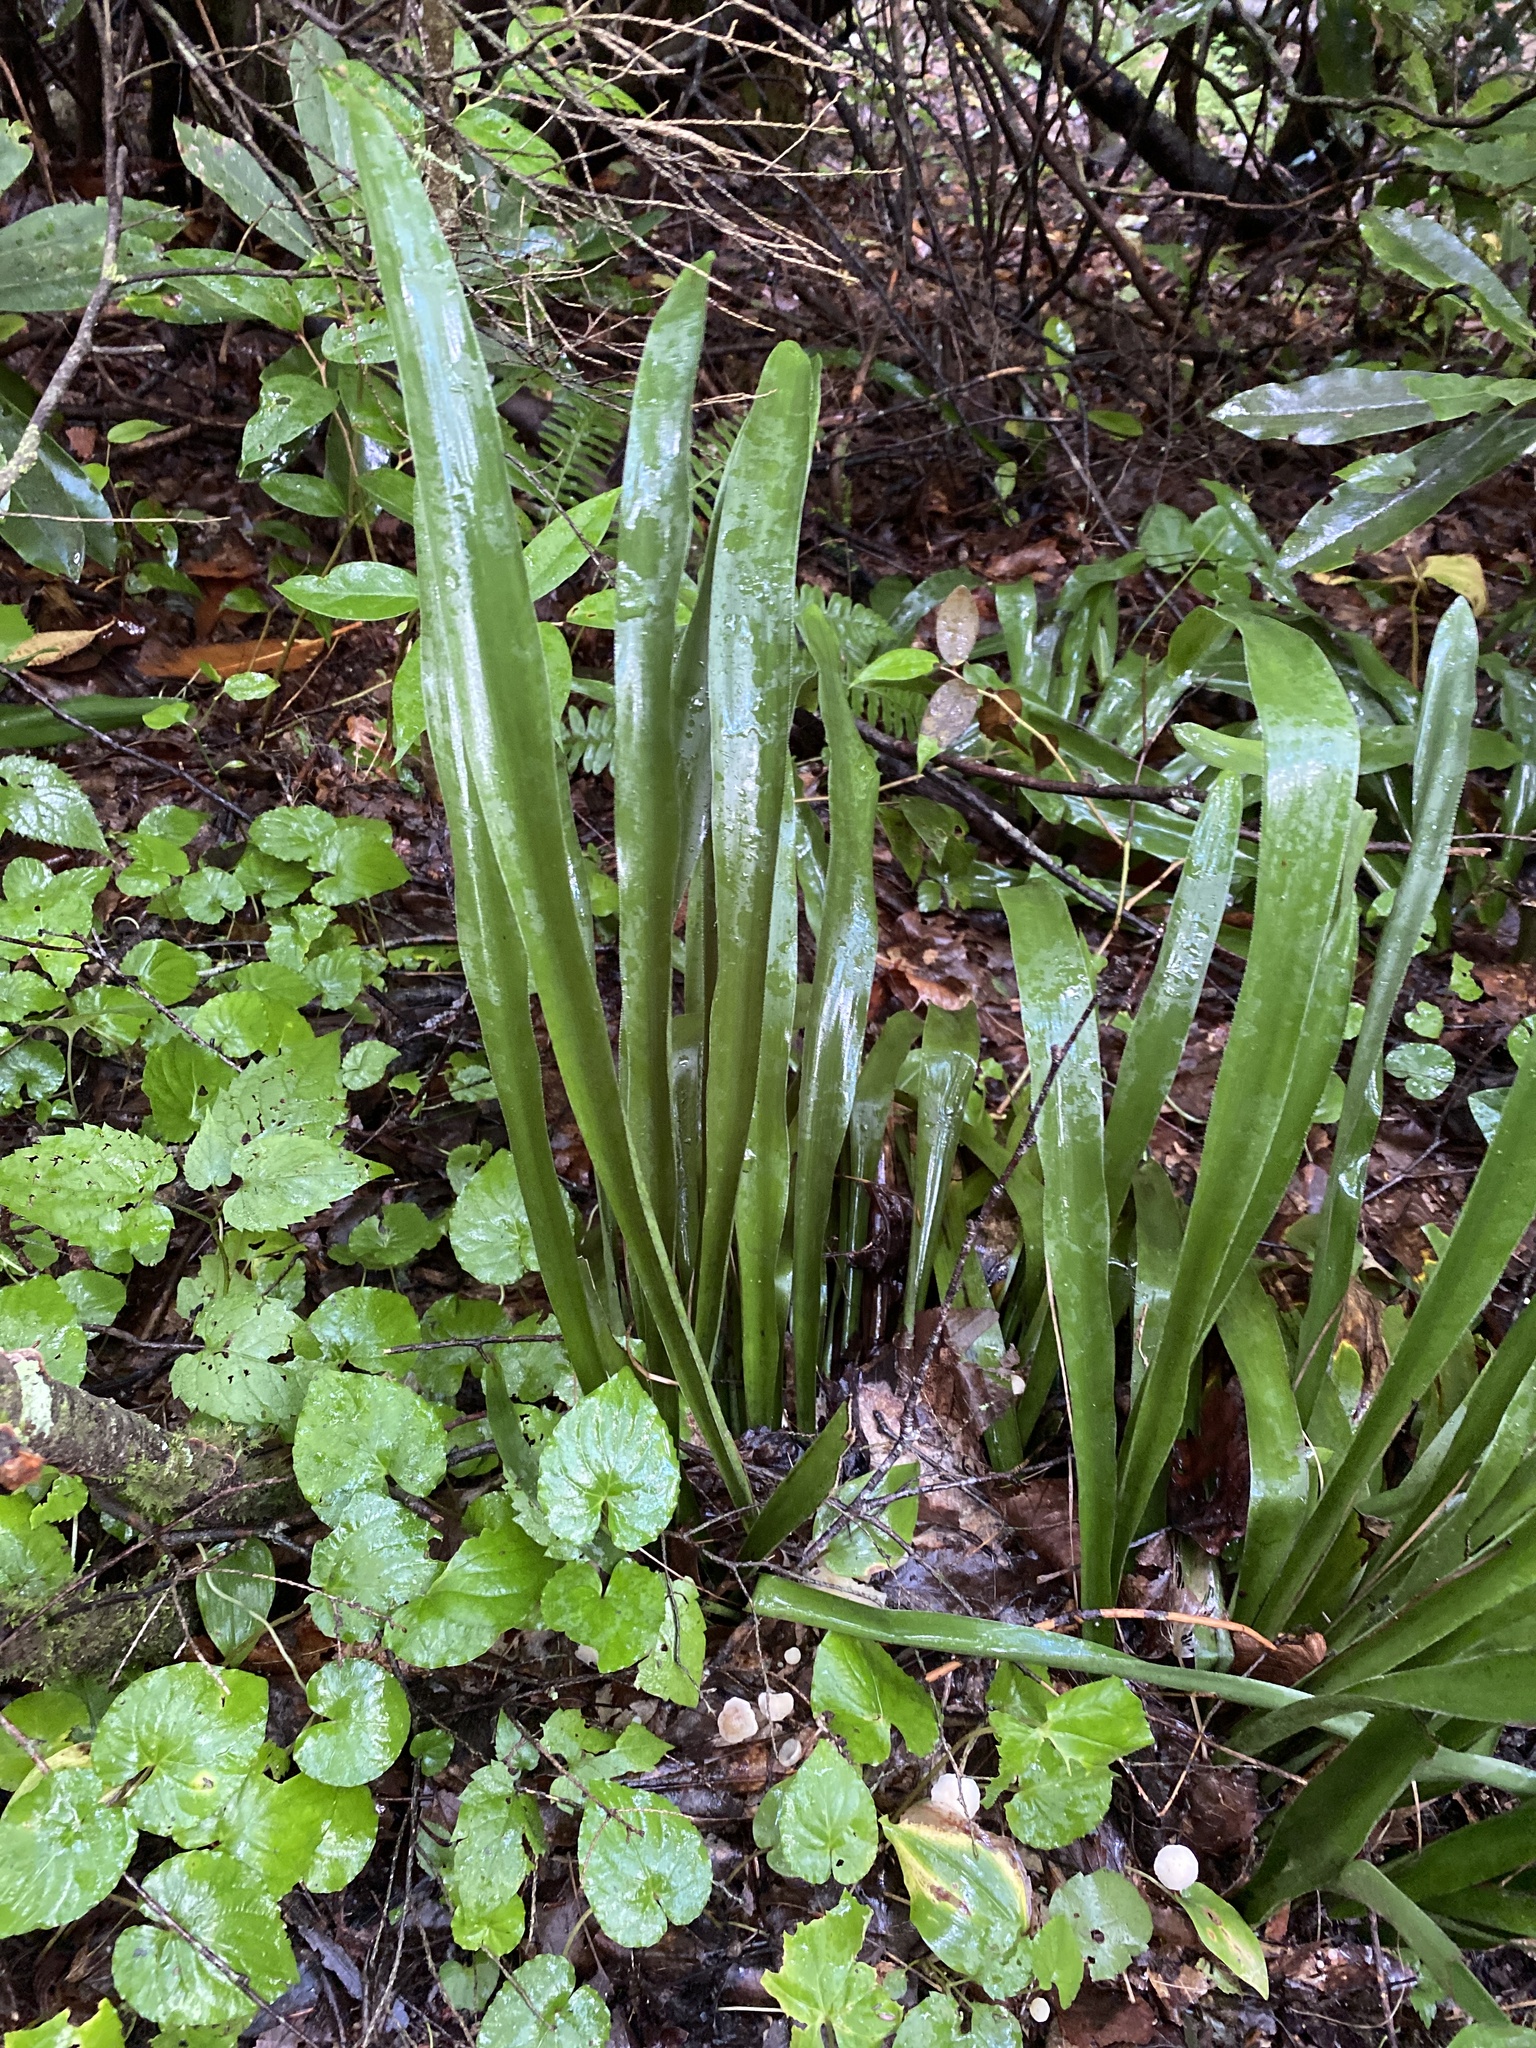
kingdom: Plantae
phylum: Tracheophyta
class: Liliopsida
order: Poales
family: Cyperaceae
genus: Carex
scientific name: Carex fraseriana
